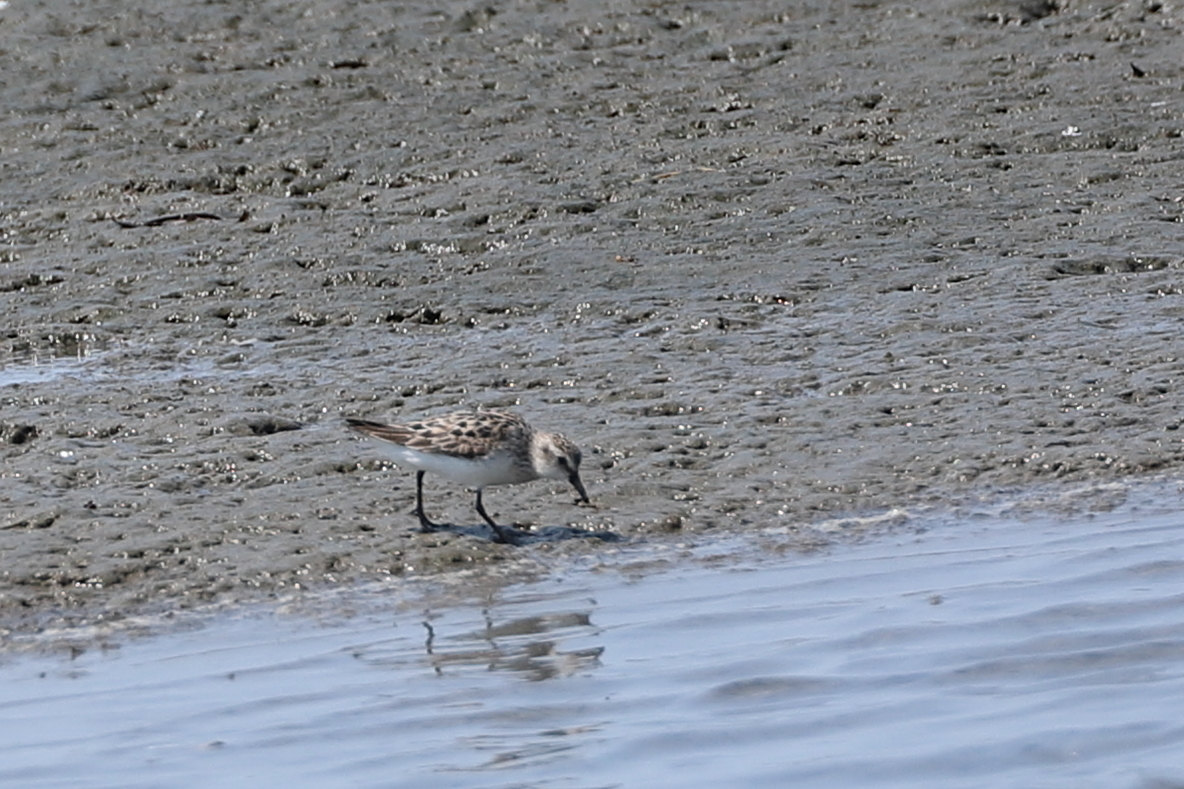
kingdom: Animalia
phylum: Chordata
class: Aves
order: Charadriiformes
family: Scolopacidae
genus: Calidris
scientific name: Calidris pusilla
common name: Semipalmated sandpiper
